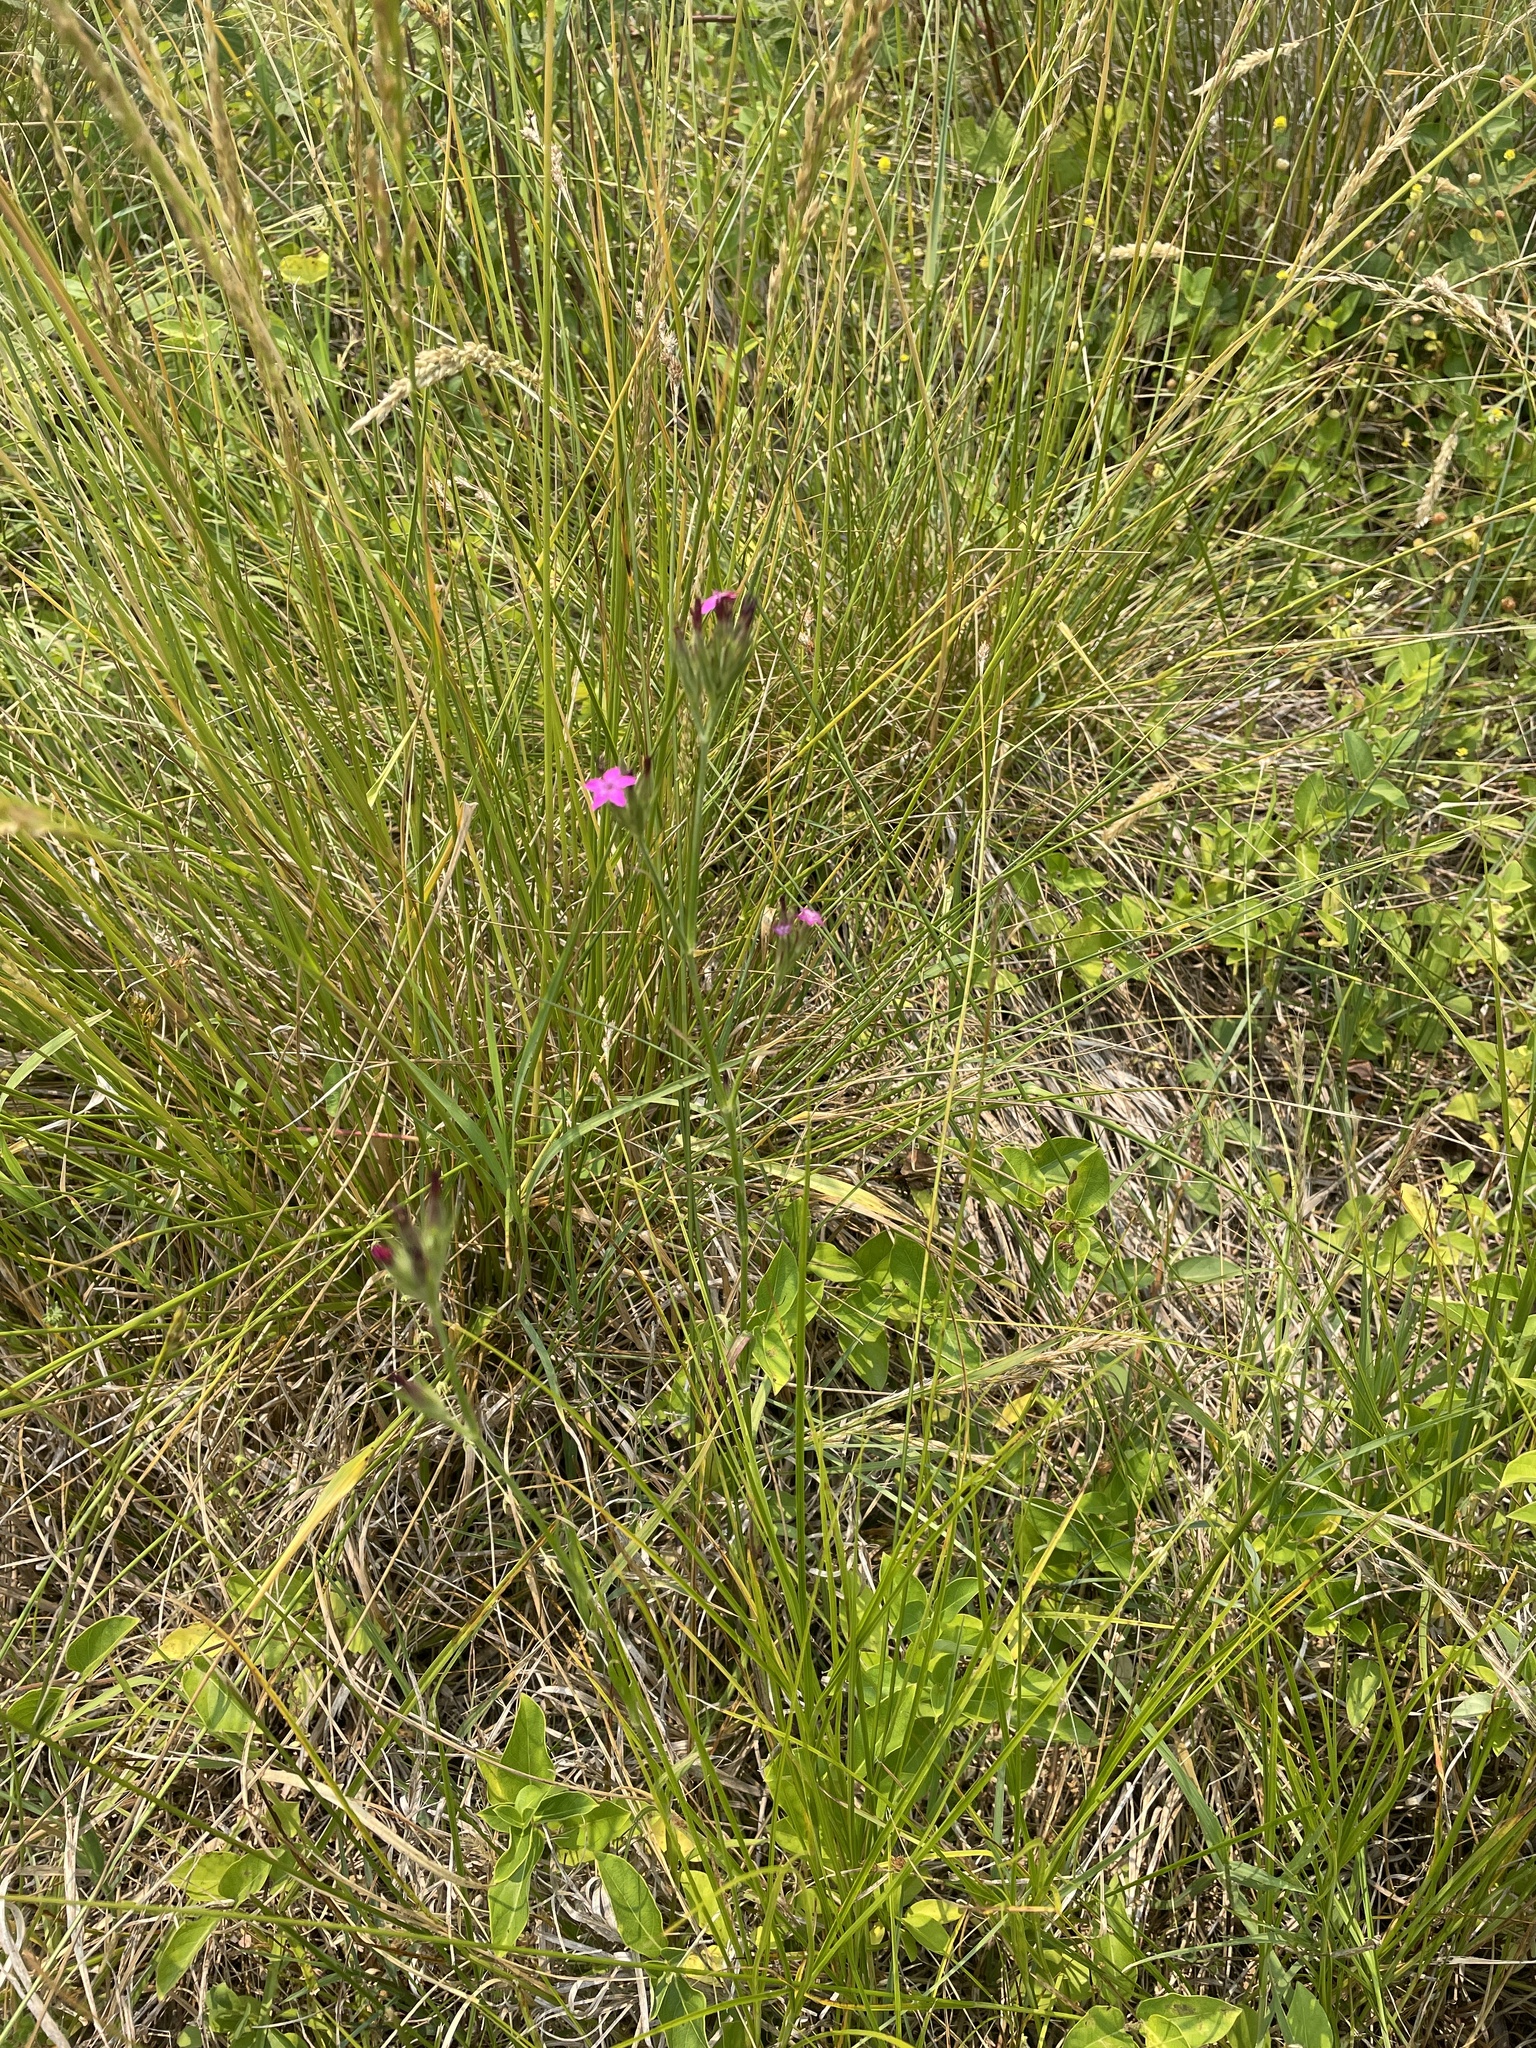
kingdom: Plantae
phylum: Tracheophyta
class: Magnoliopsida
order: Caryophyllales
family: Caryophyllaceae
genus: Dianthus
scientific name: Dianthus armeria
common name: Deptford pink
